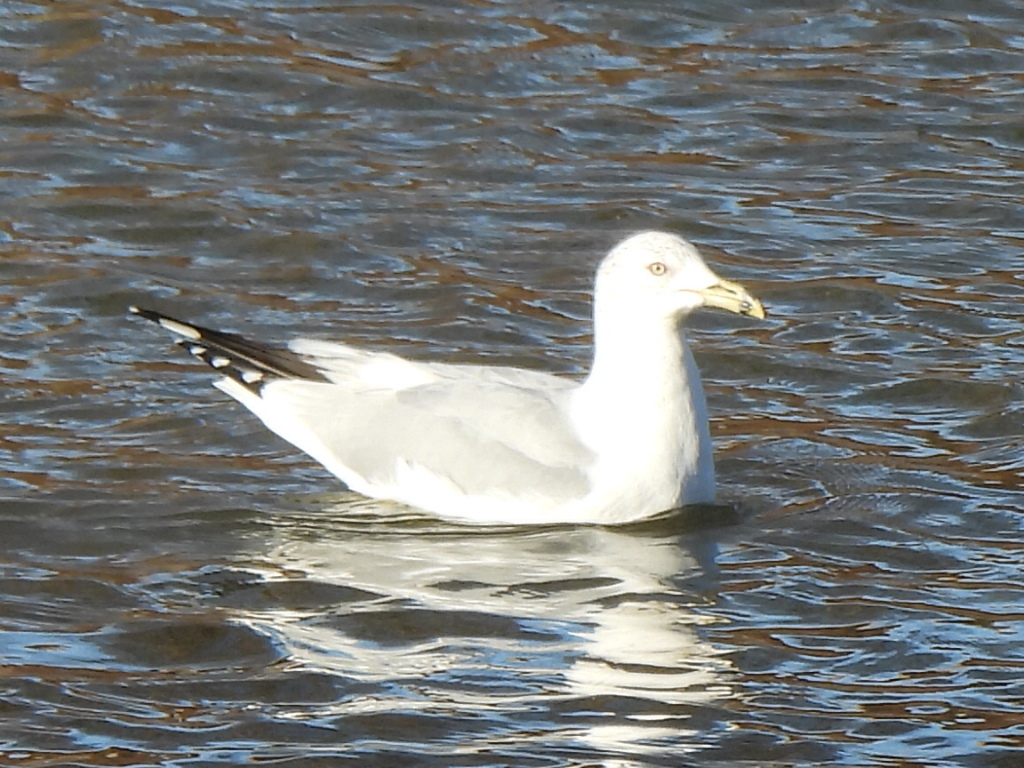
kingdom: Animalia
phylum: Chordata
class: Aves
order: Charadriiformes
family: Laridae
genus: Larus
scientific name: Larus delawarensis
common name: Ring-billed gull
